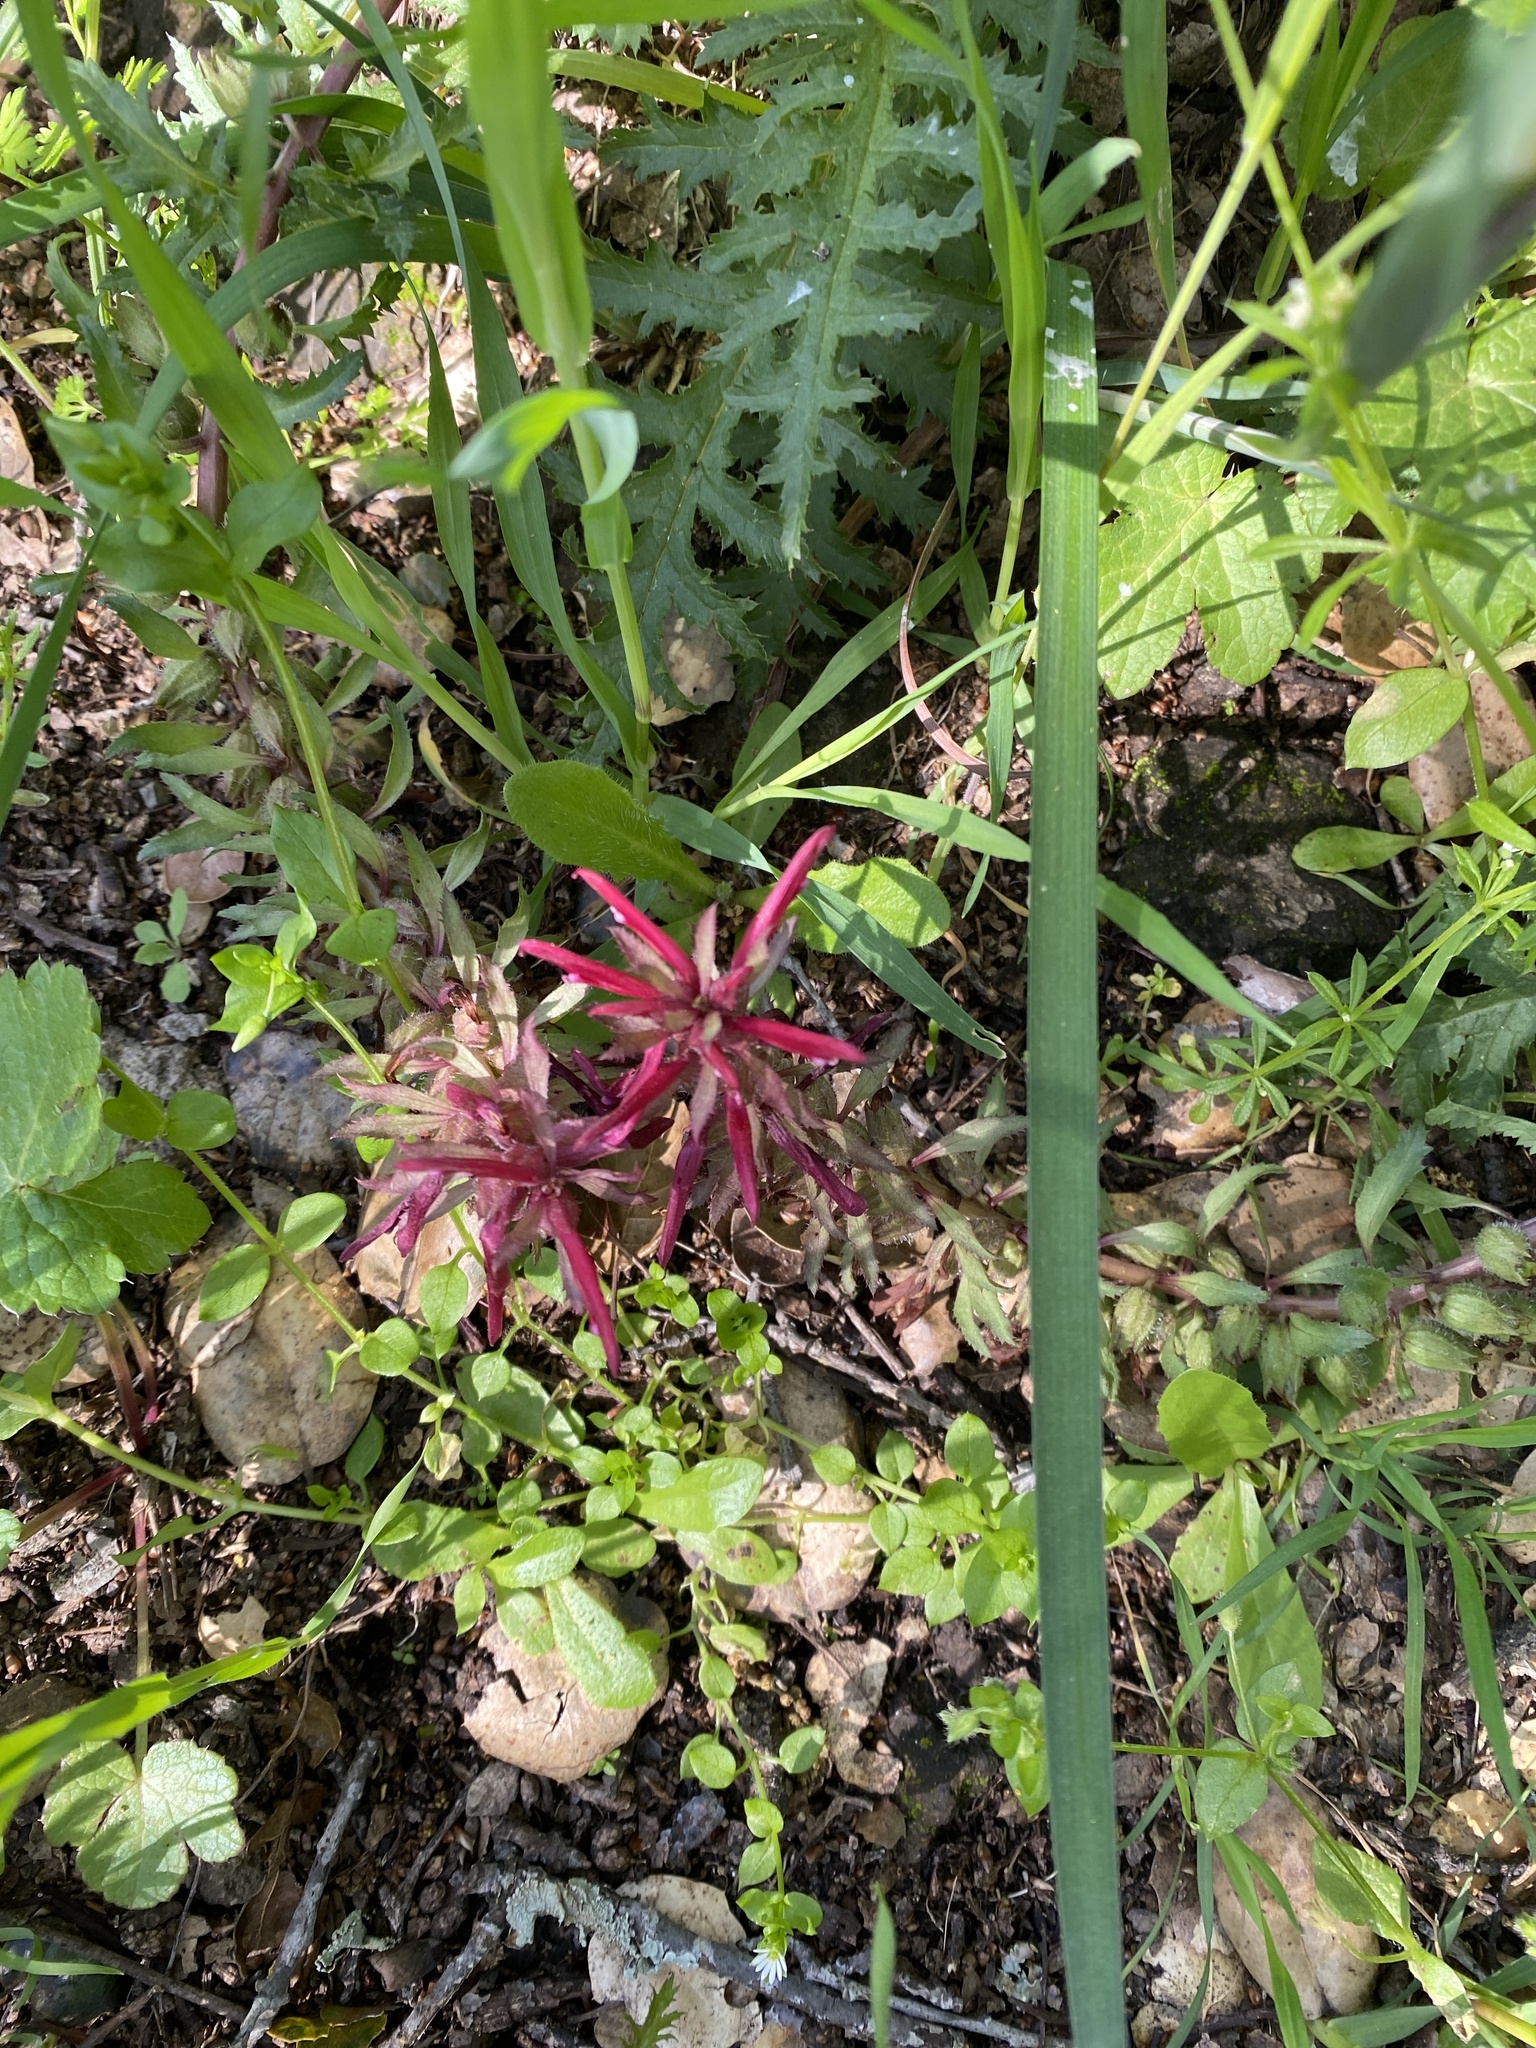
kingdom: Plantae
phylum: Tracheophyta
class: Magnoliopsida
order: Lamiales
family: Orobanchaceae
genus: Pedicularis
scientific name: Pedicularis densiflora
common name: Indian warrior
